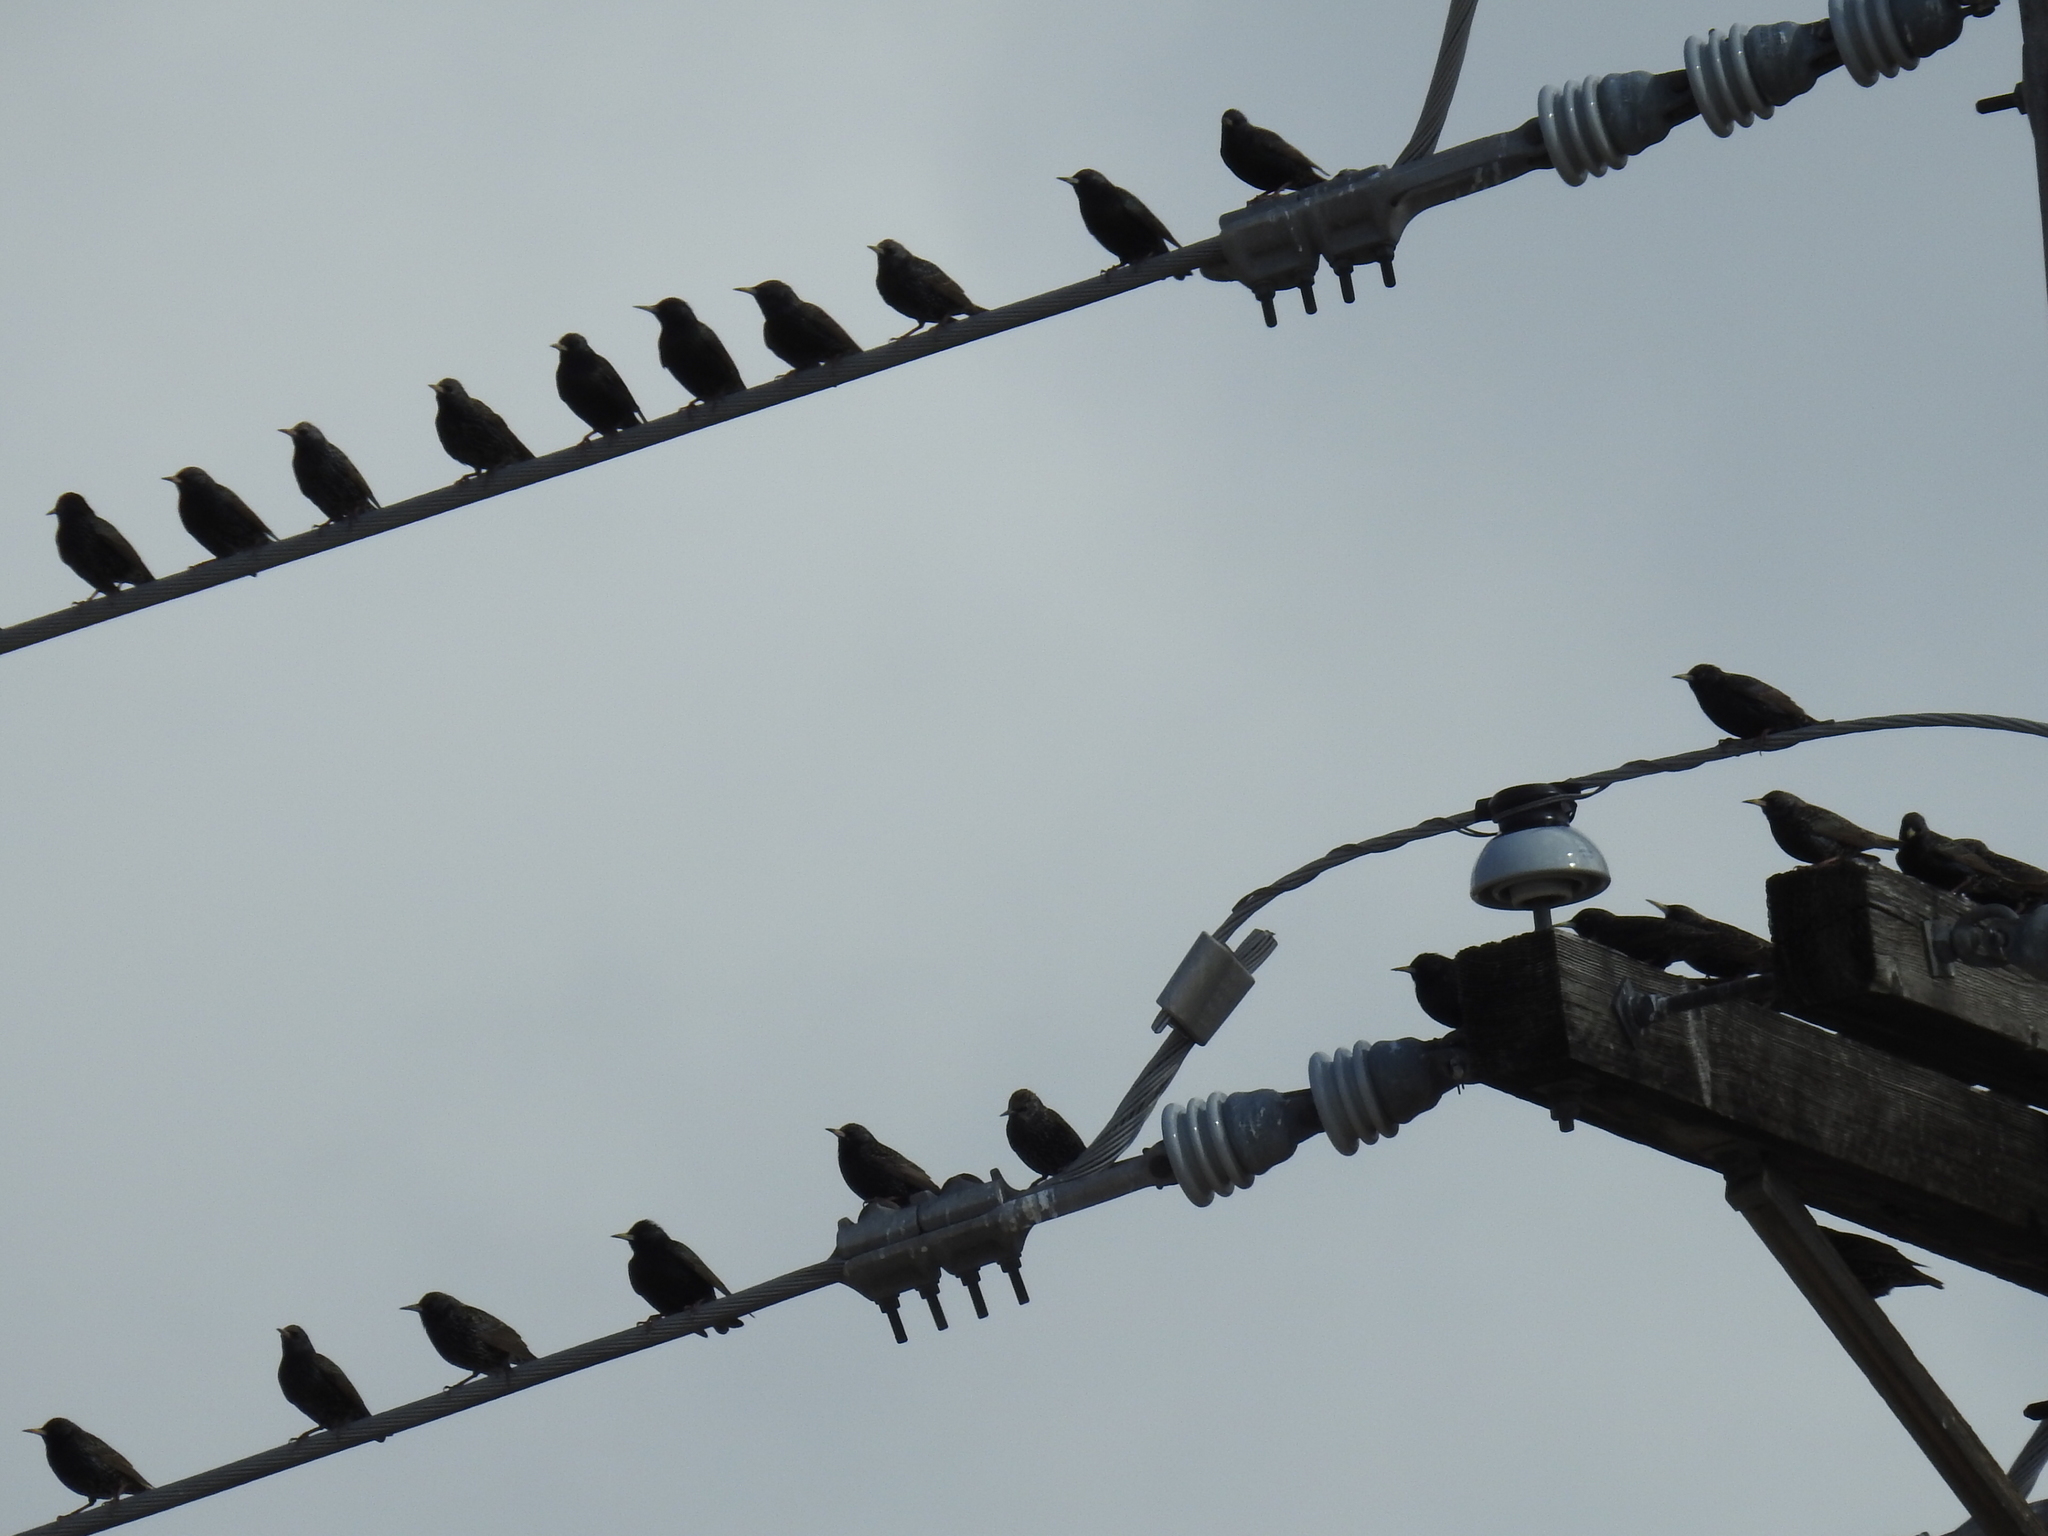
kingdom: Animalia
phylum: Chordata
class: Aves
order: Passeriformes
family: Sturnidae
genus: Sturnus
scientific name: Sturnus vulgaris
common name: Common starling
